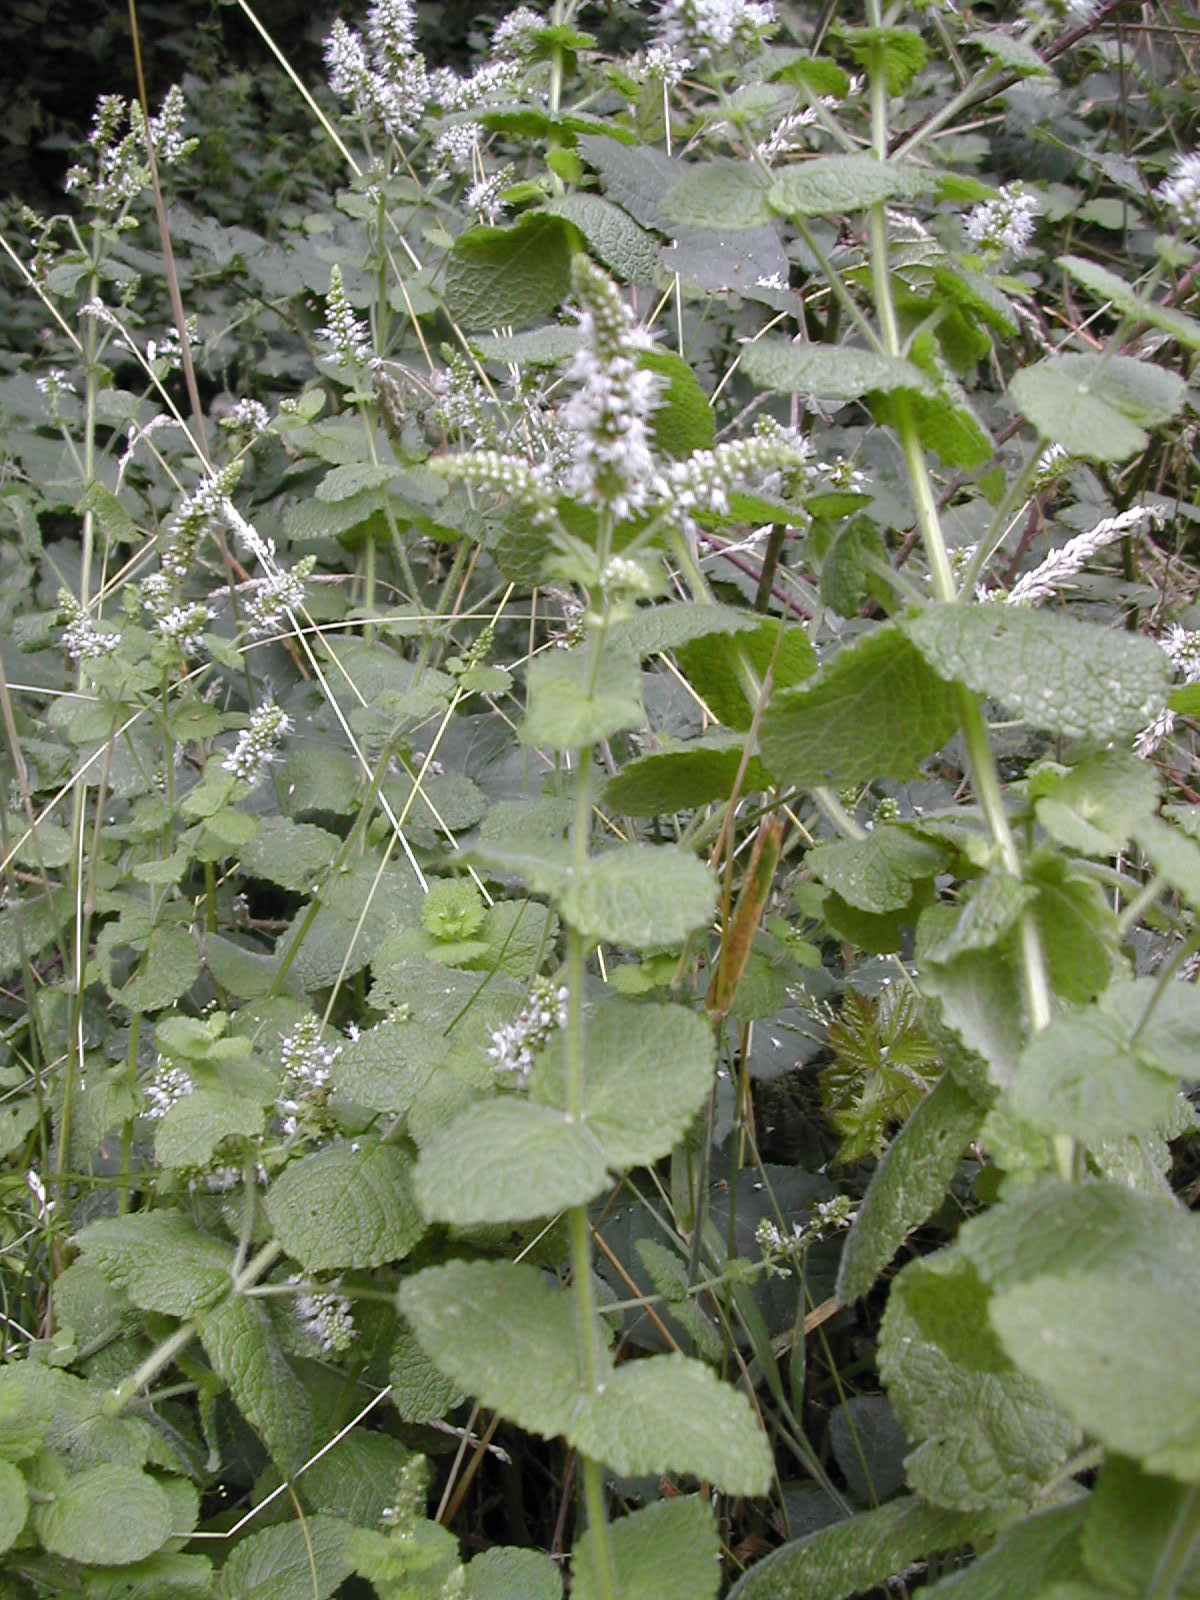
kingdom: Plantae
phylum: Tracheophyta
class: Magnoliopsida
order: Lamiales
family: Lamiaceae
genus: Mentha
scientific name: Mentha suaveolens
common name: Apple mint
